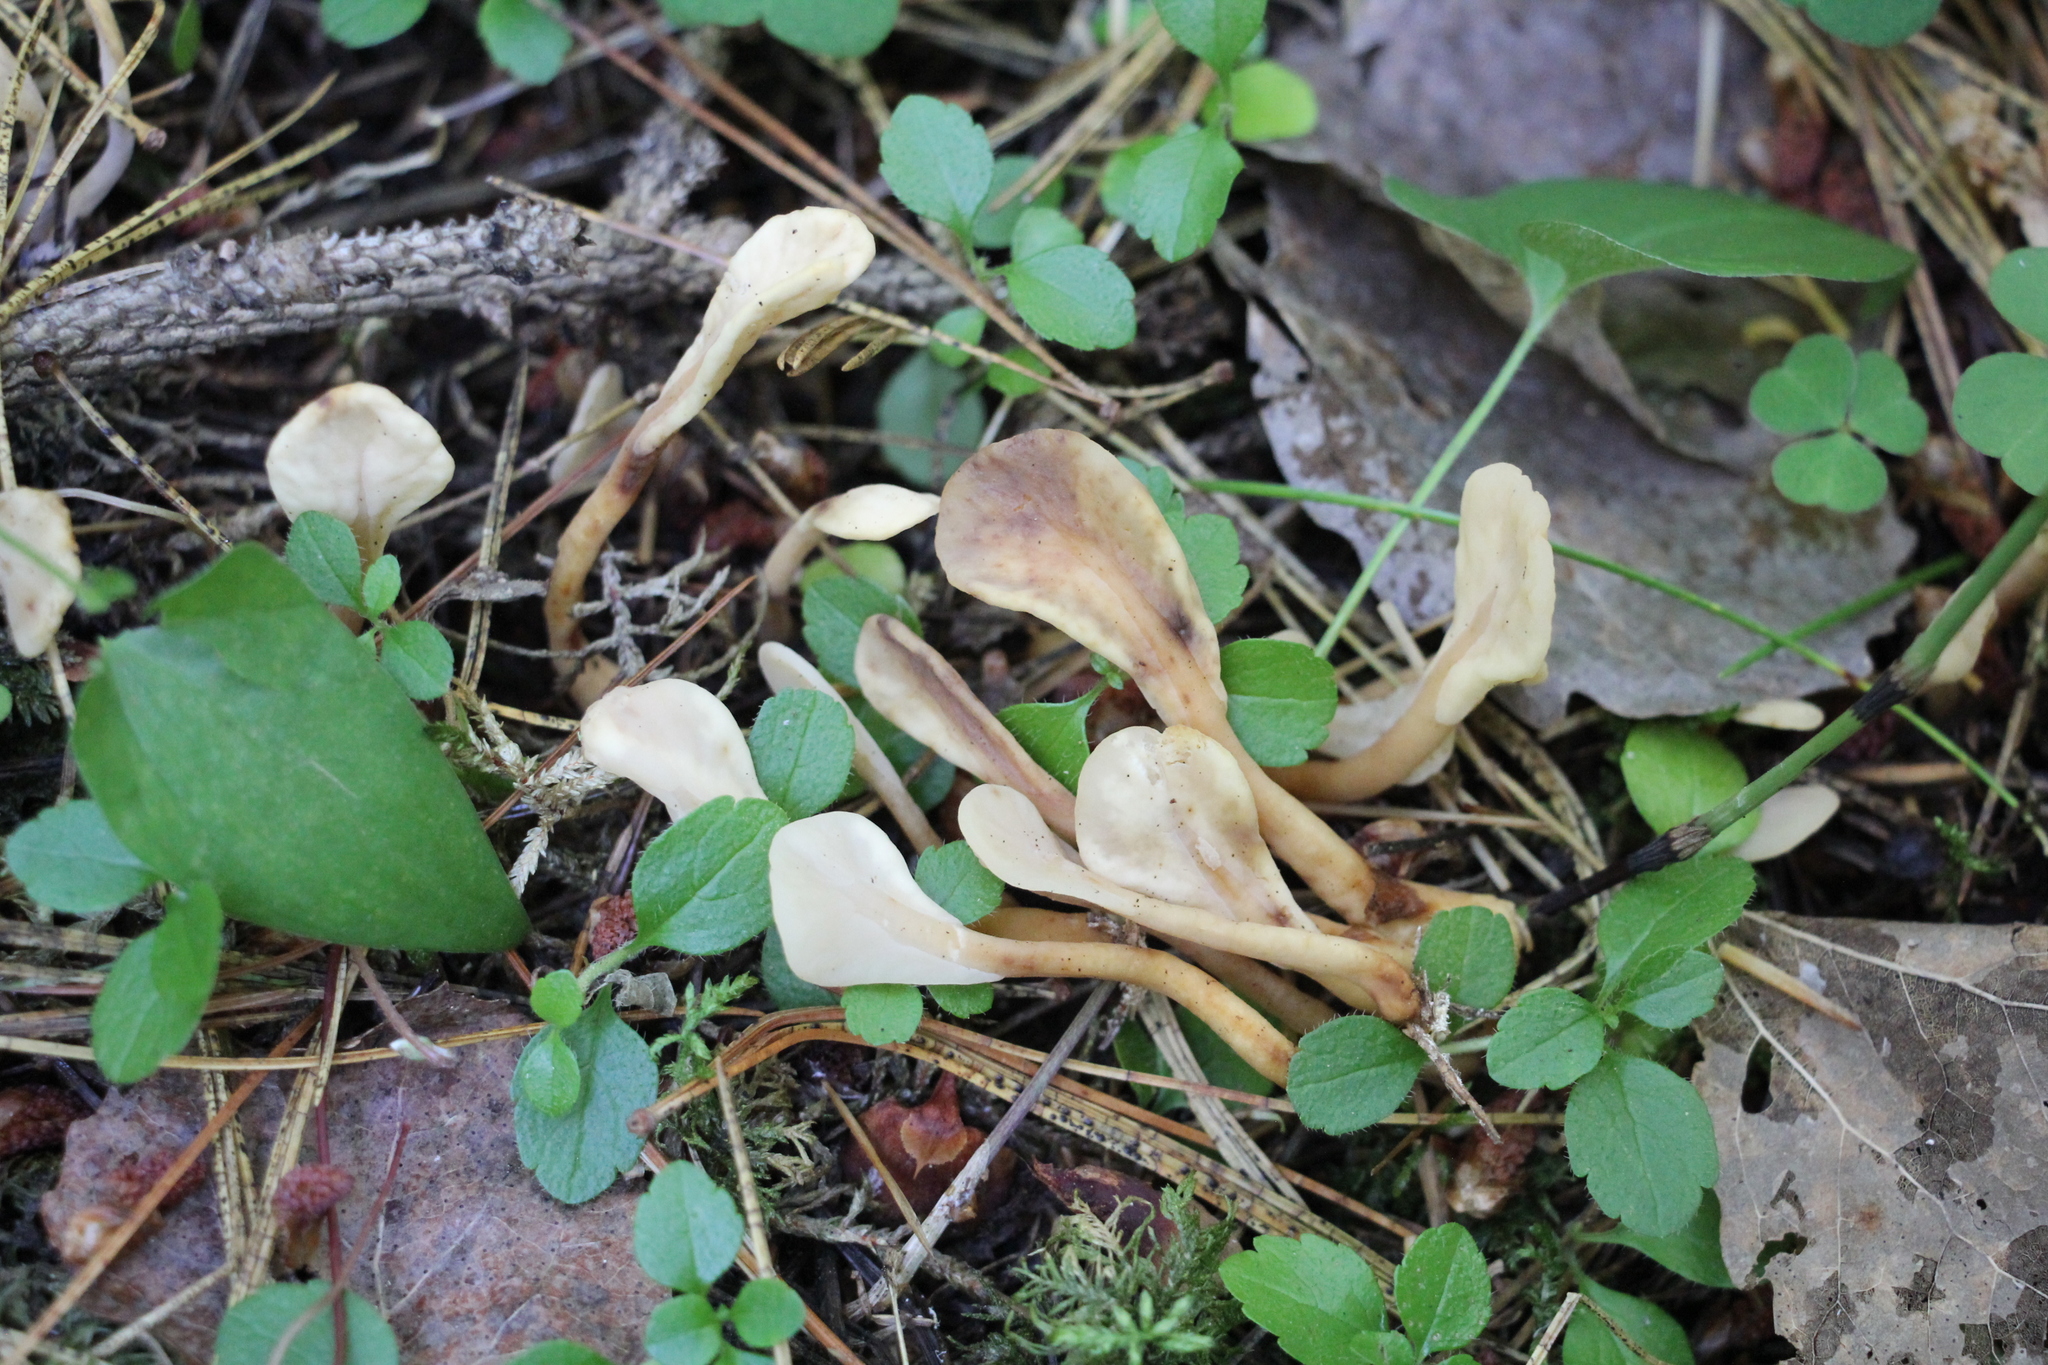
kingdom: Fungi
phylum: Ascomycota
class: Leotiomycetes
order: Rhytismatales
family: Cudoniaceae
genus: Spathularia
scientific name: Spathularia flavida
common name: Yellow fan
